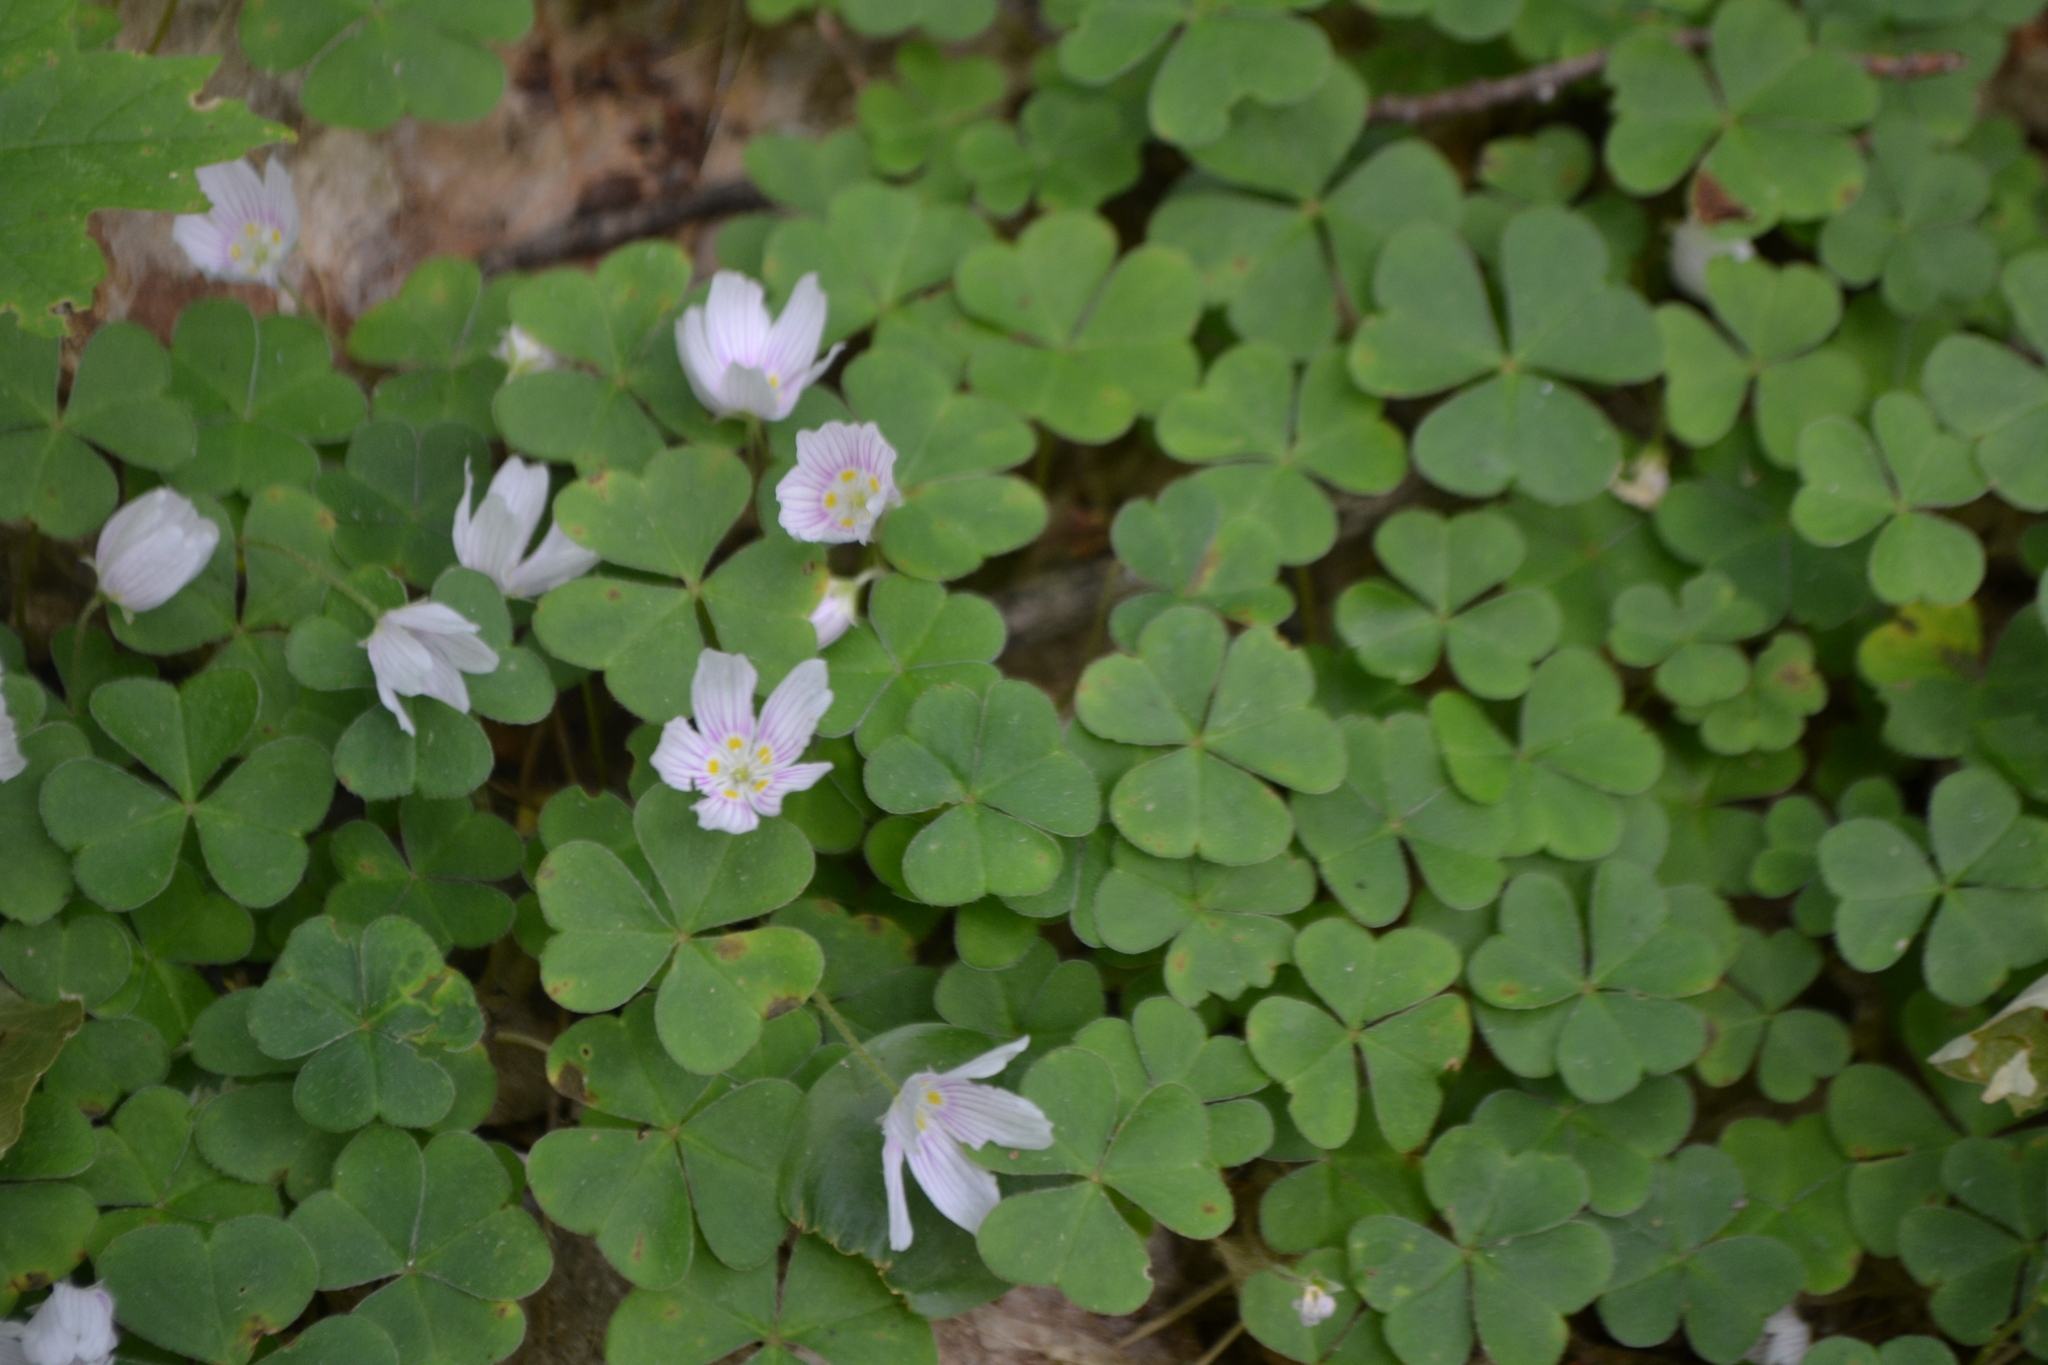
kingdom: Plantae
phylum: Tracheophyta
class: Magnoliopsida
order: Oxalidales
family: Oxalidaceae
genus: Oxalis
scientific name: Oxalis montana
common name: American wood-sorrel
